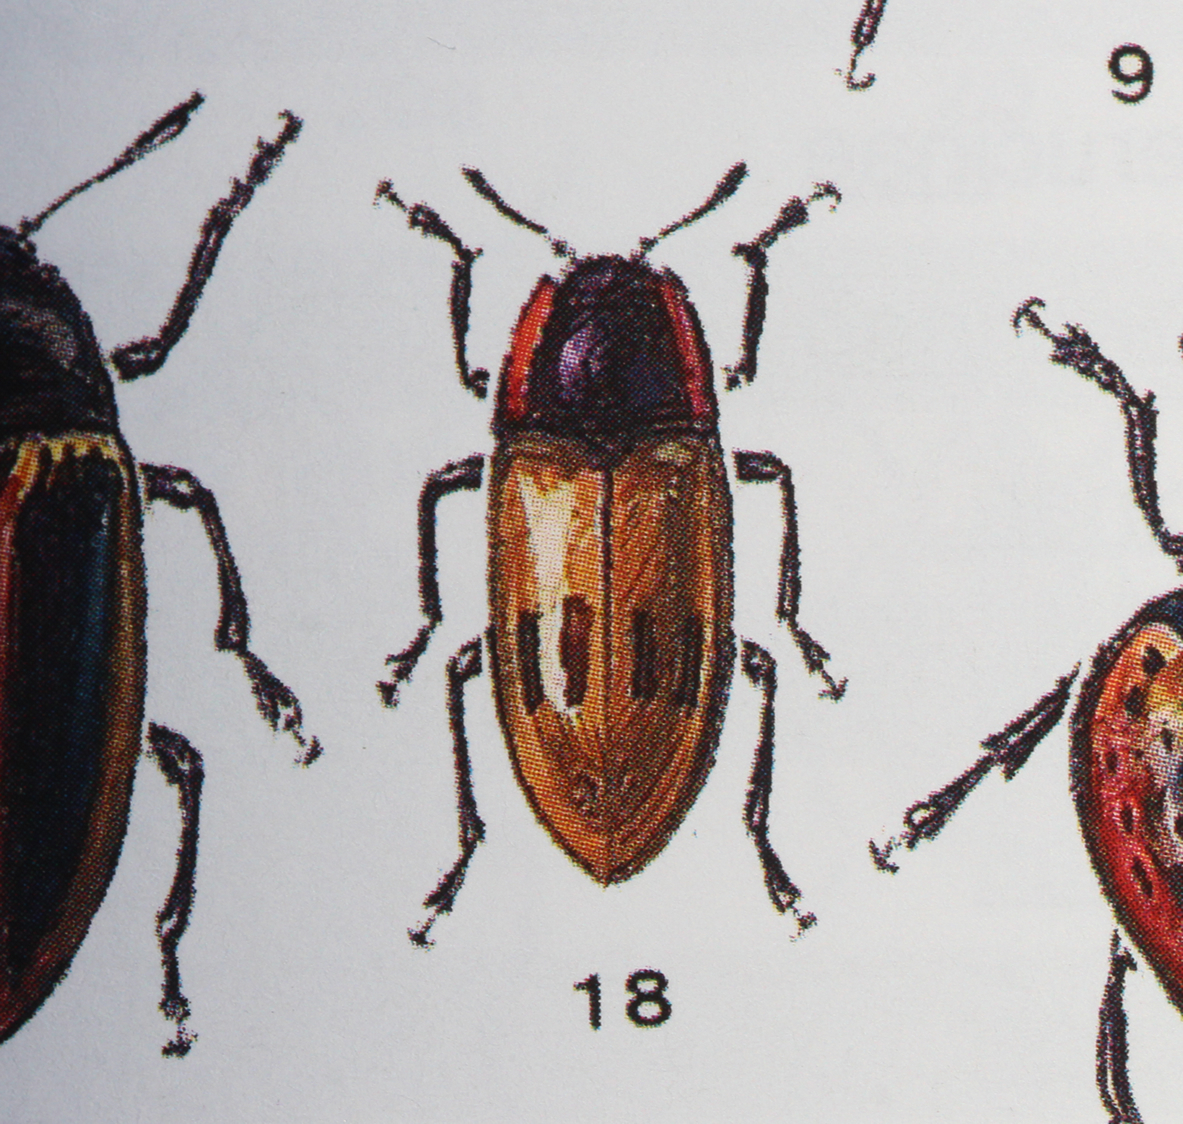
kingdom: Animalia
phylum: Arthropoda
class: Insecta
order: Coleoptera
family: Erotylidae
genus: Iphiclus
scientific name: Iphiclus
